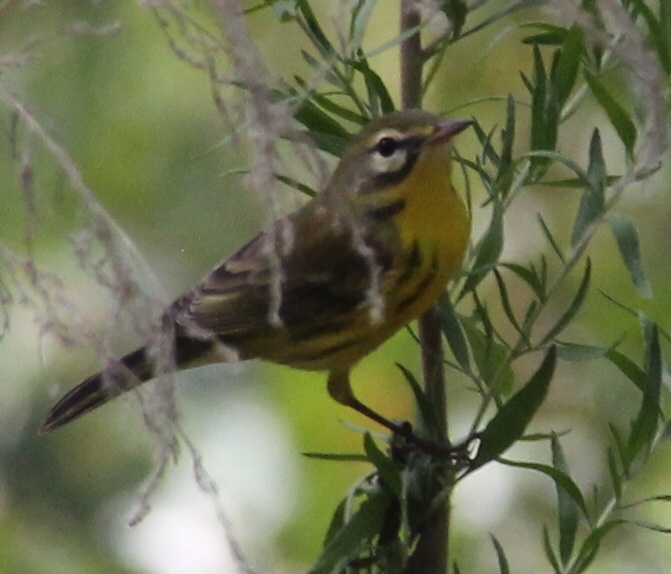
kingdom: Animalia
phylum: Chordata
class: Aves
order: Passeriformes
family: Parulidae
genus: Setophaga
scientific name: Setophaga discolor
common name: Prairie warbler
